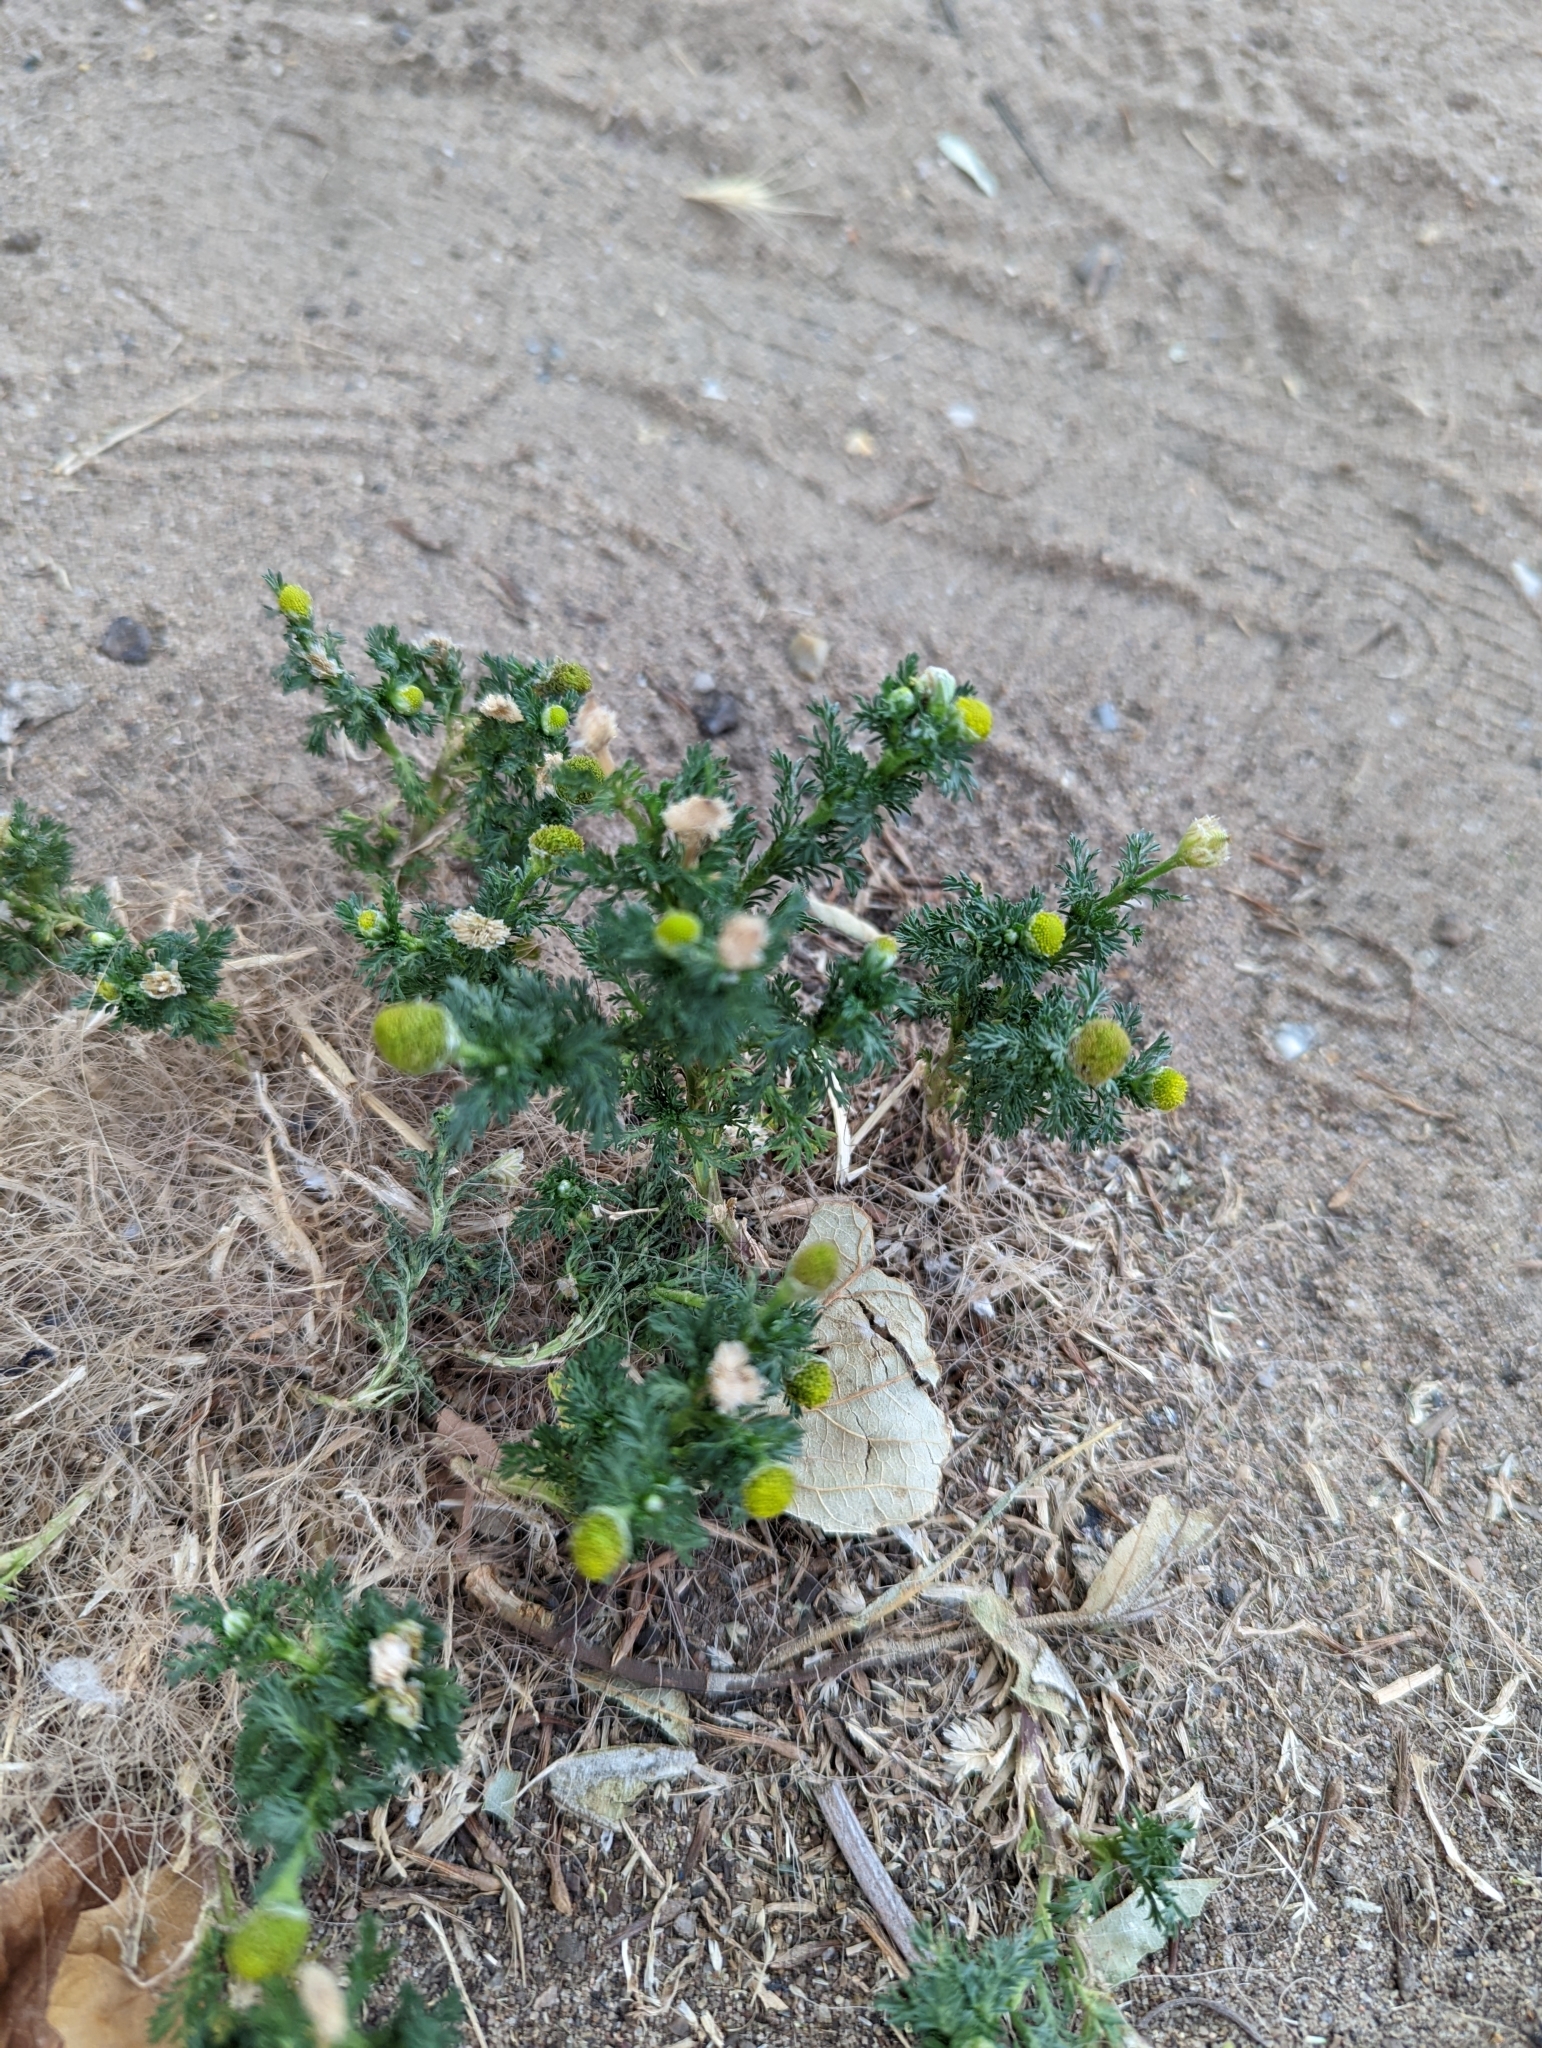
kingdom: Plantae
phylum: Tracheophyta
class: Magnoliopsida
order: Asterales
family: Asteraceae
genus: Matricaria
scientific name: Matricaria discoidea
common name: Disc mayweed
